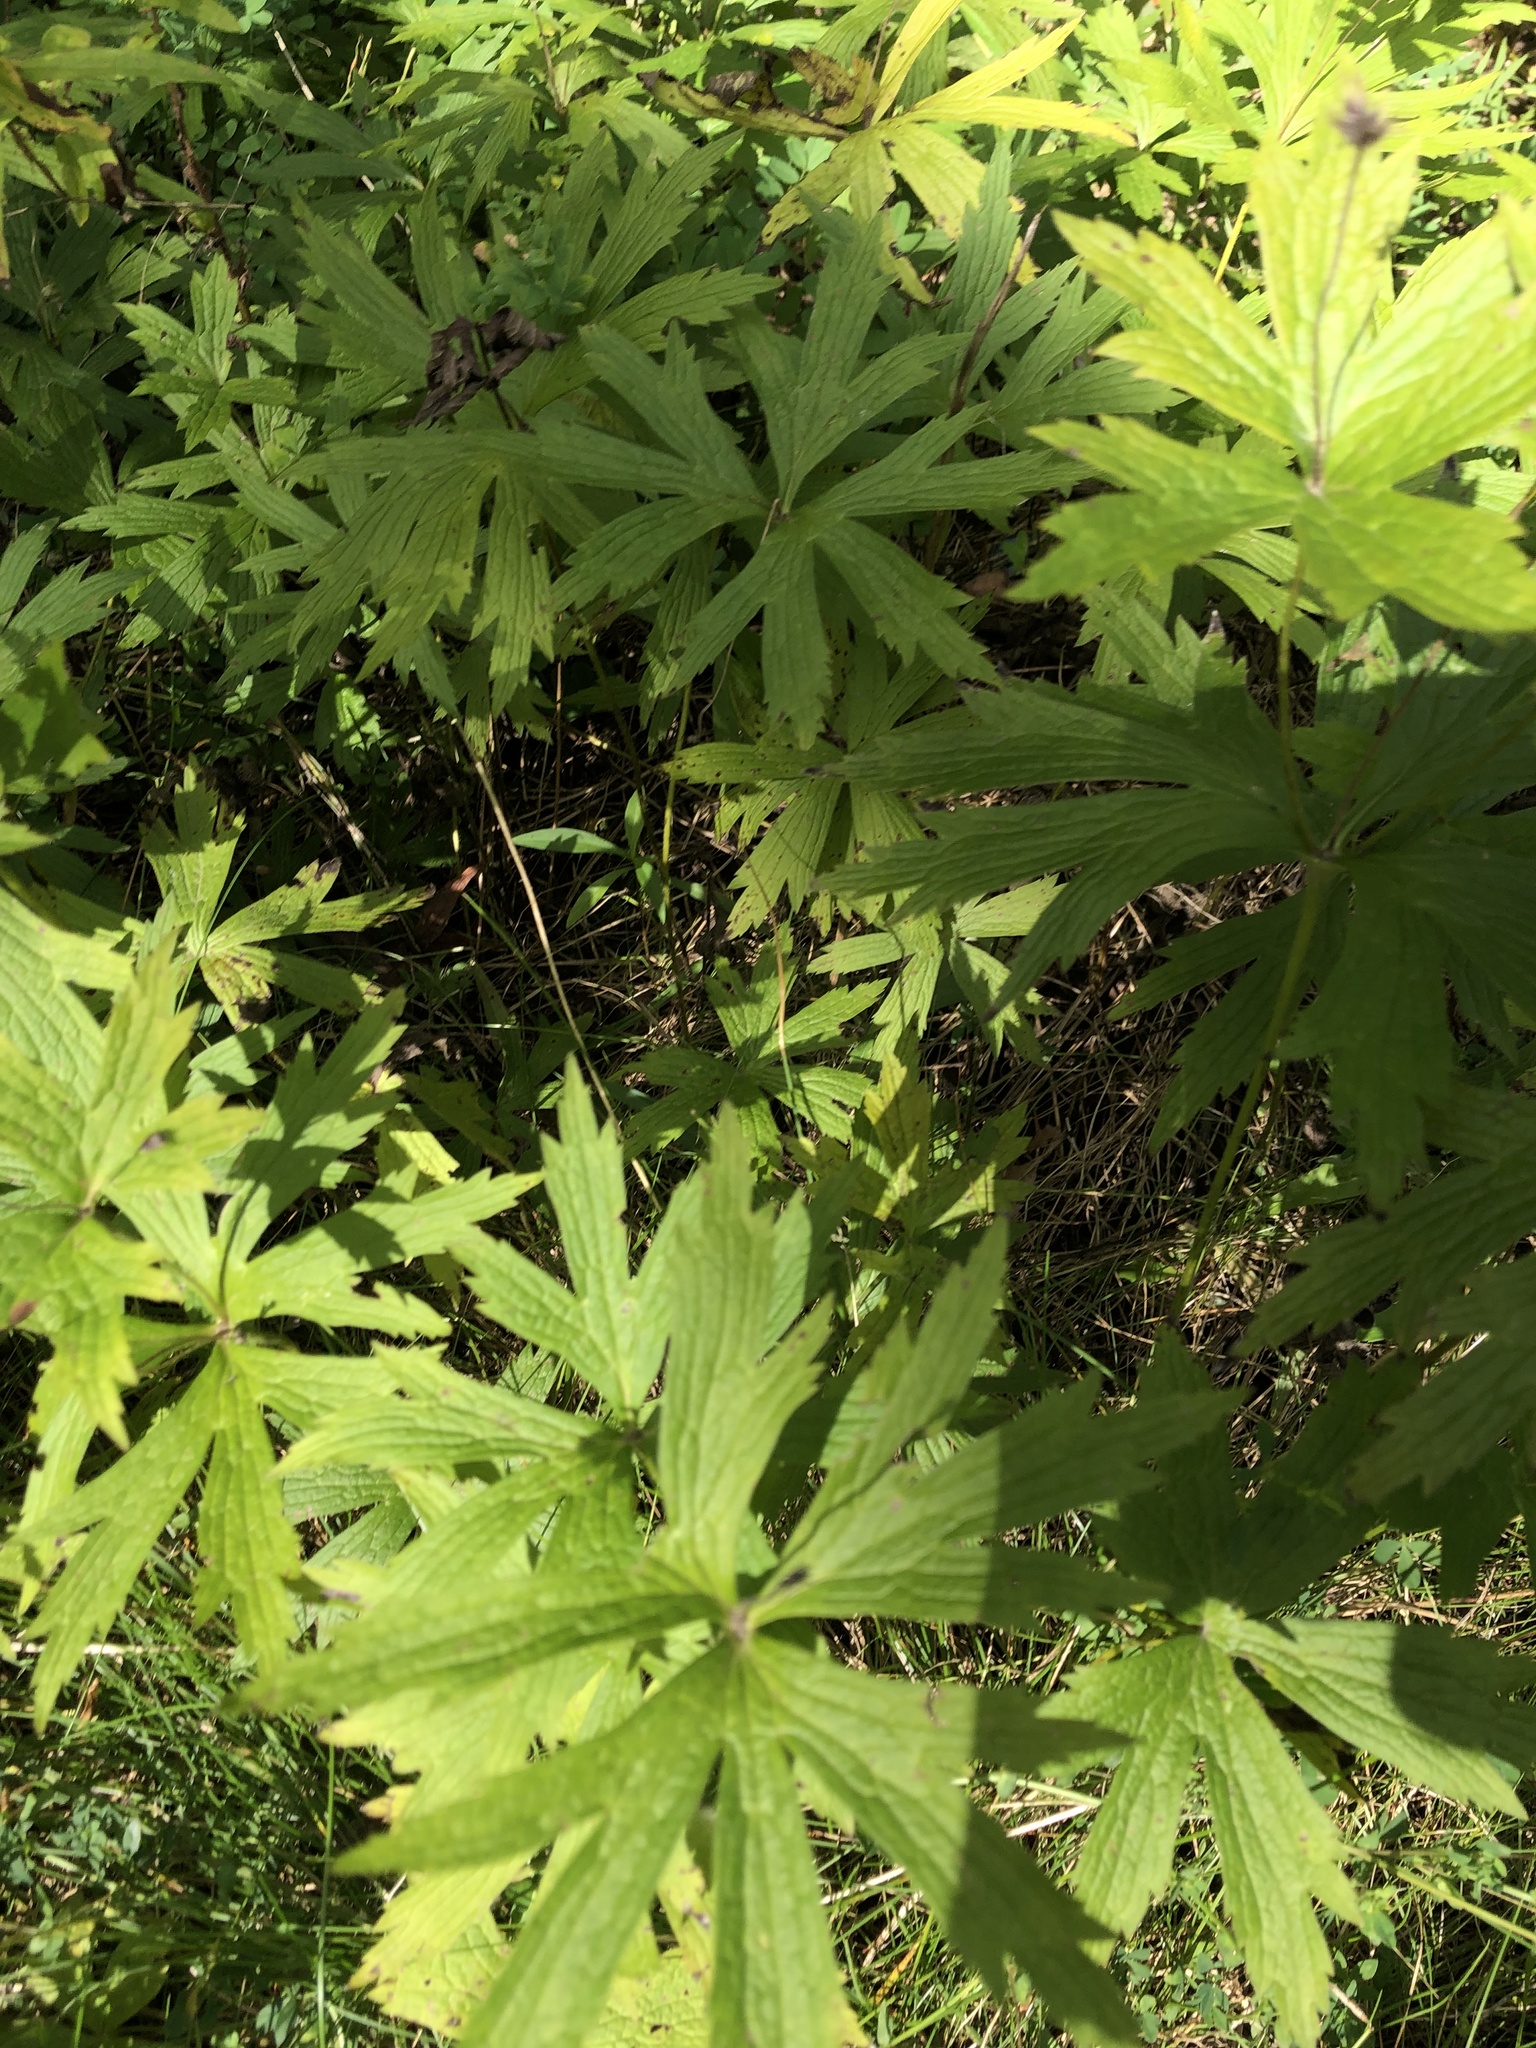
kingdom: Plantae
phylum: Tracheophyta
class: Magnoliopsida
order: Ranunculales
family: Ranunculaceae
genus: Anemonastrum
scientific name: Anemonastrum canadense
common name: Canada anemone
